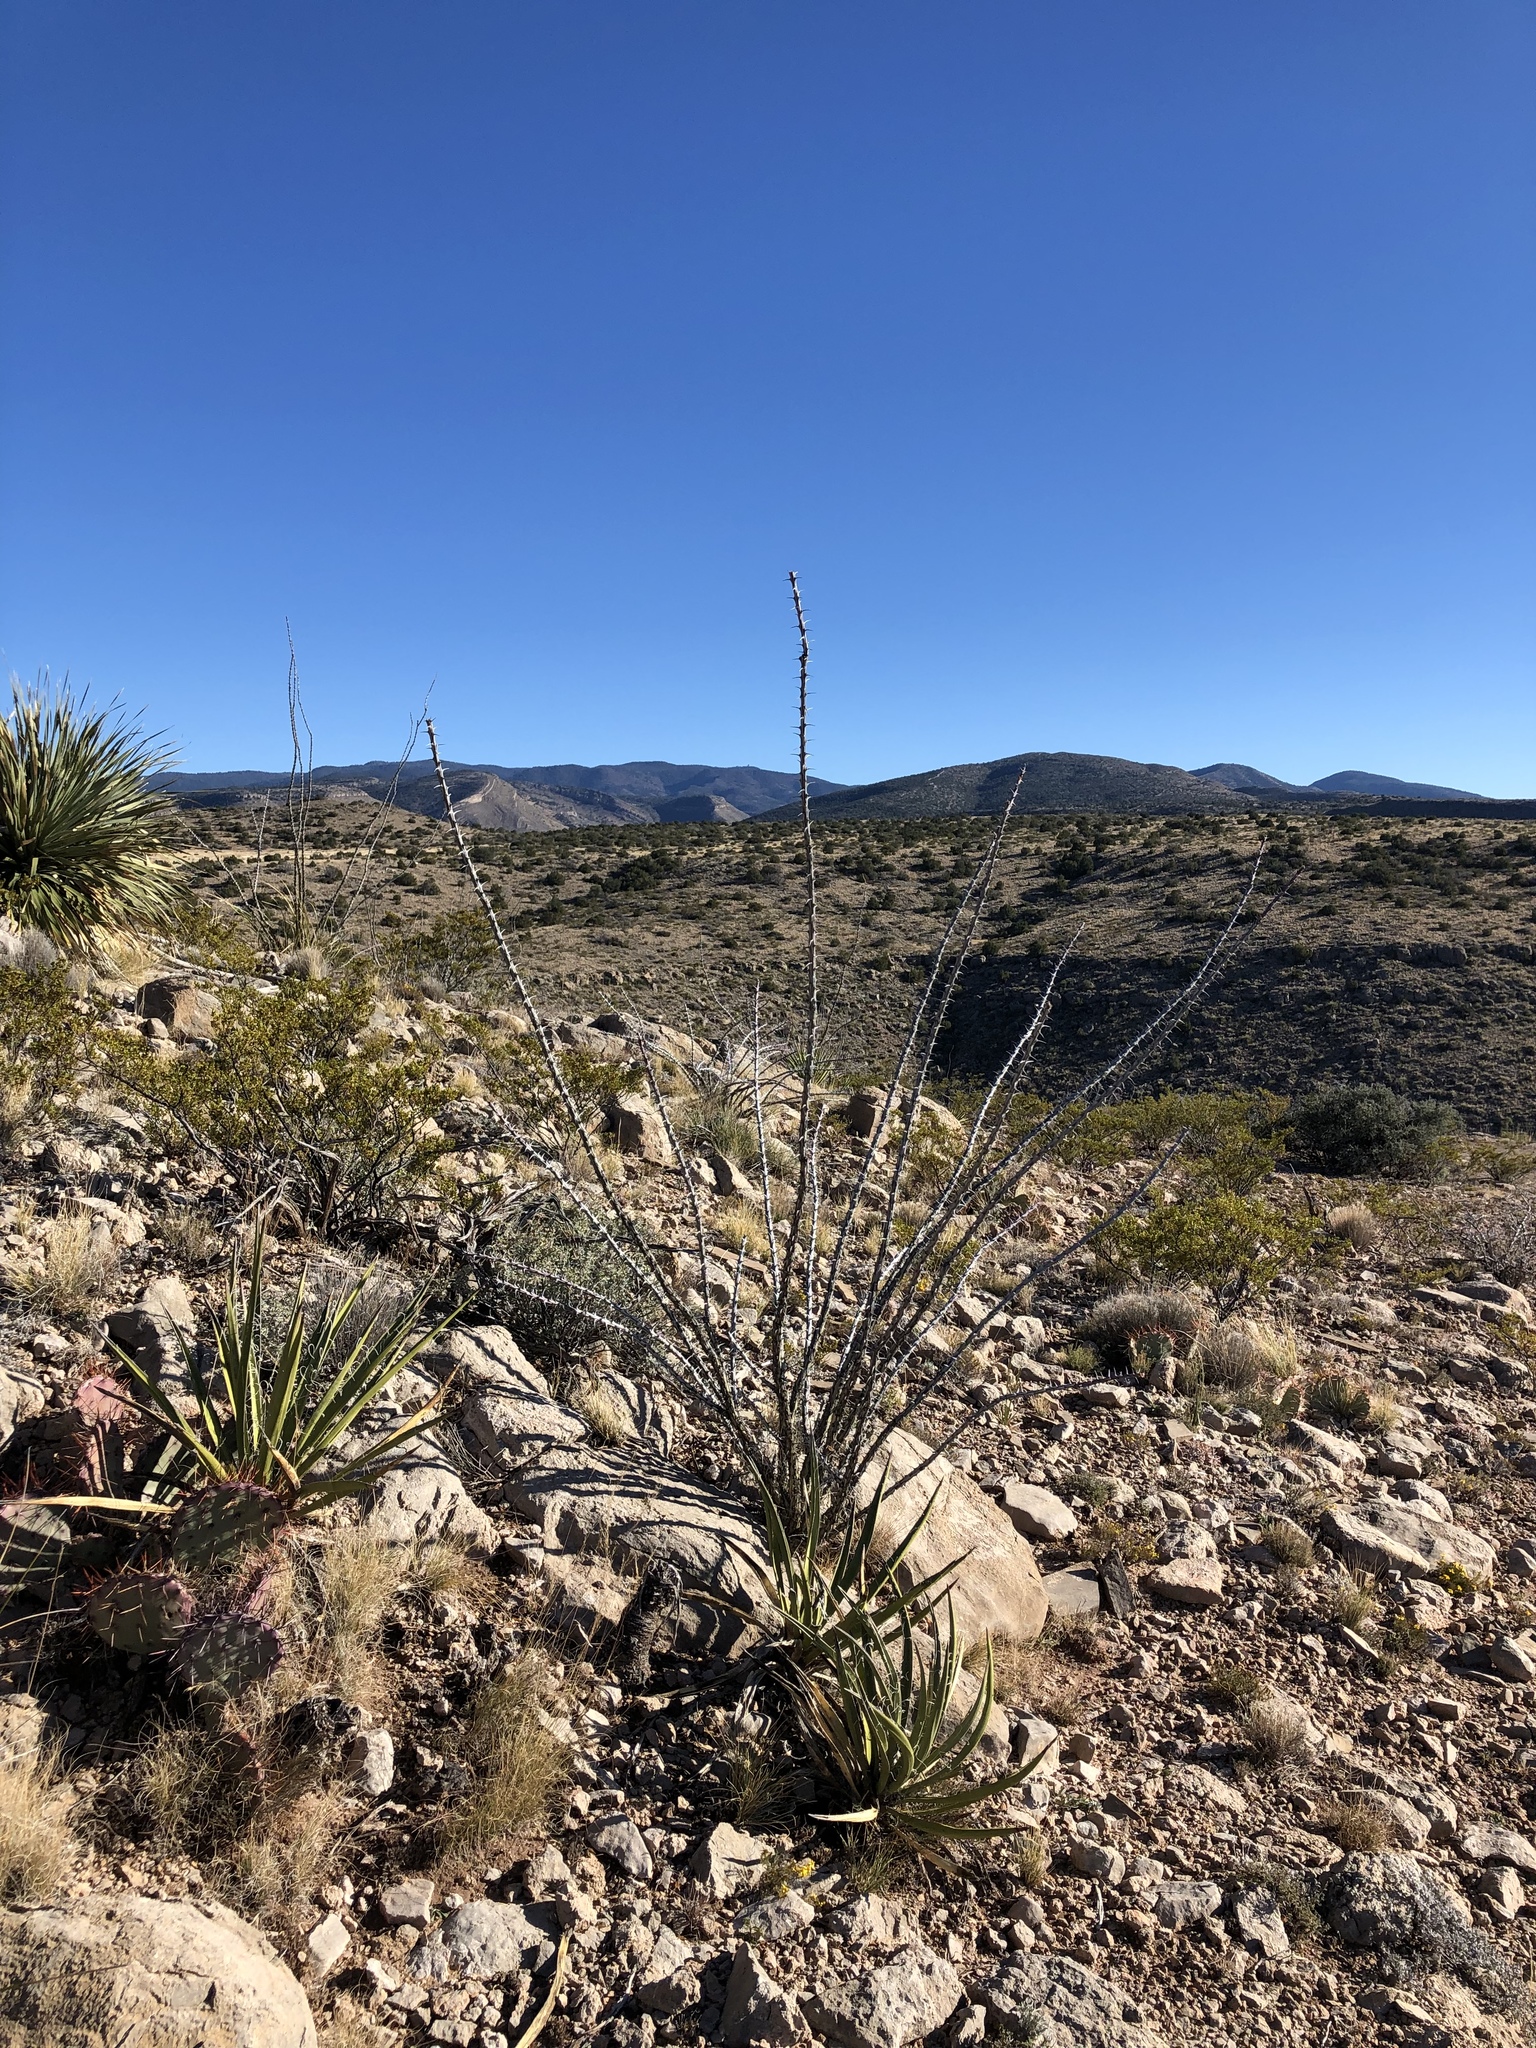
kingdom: Plantae
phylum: Tracheophyta
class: Magnoliopsida
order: Ericales
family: Fouquieriaceae
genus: Fouquieria
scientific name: Fouquieria splendens
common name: Vine-cactus
